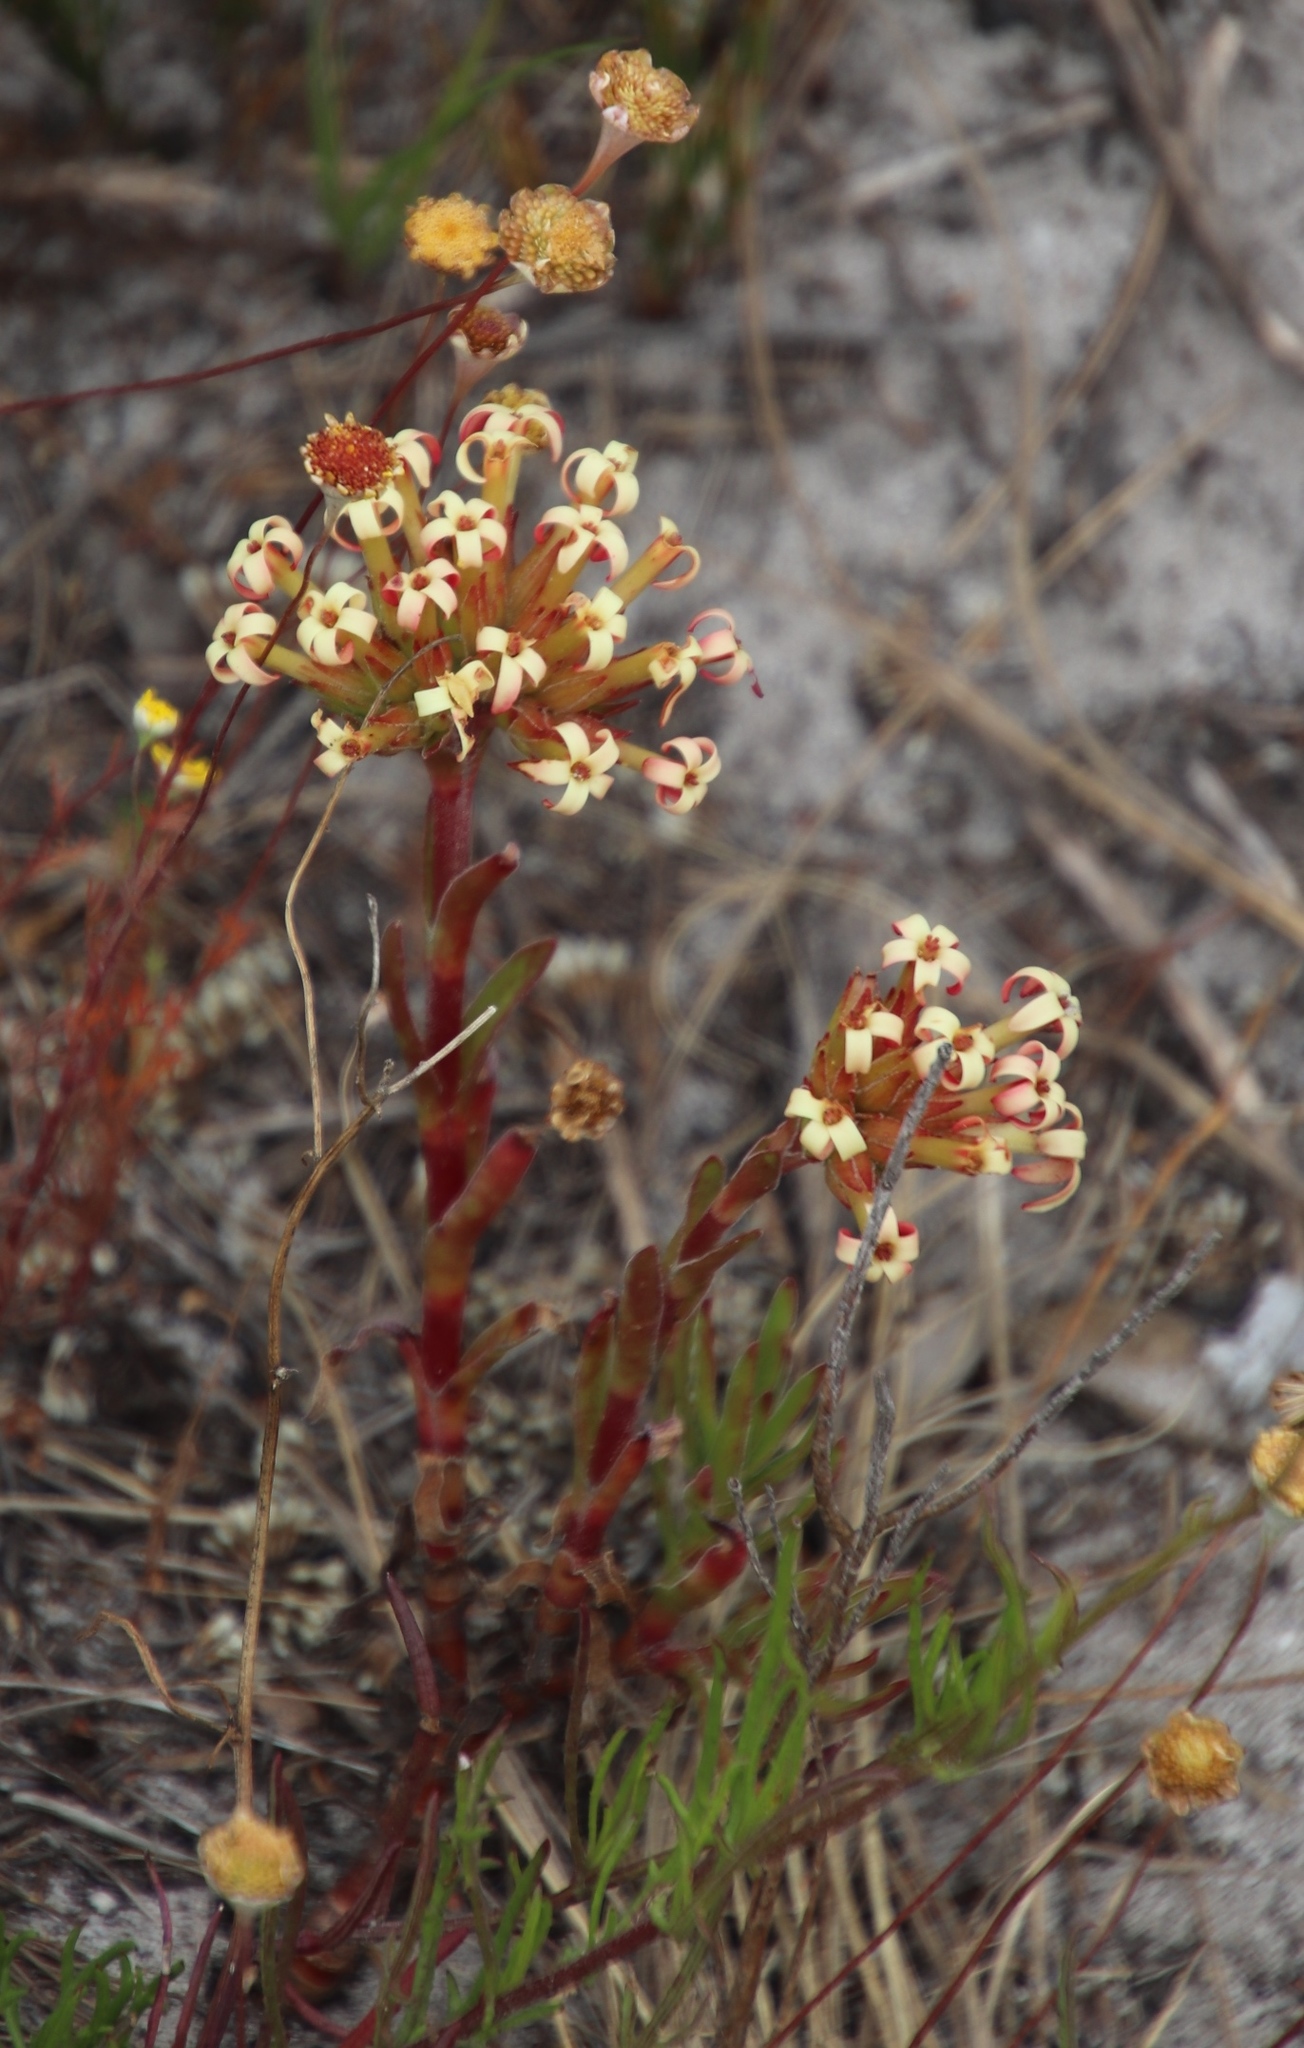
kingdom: Plantae
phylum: Tracheophyta
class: Magnoliopsida
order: Saxifragales
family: Crassulaceae
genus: Crassula
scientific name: Crassula fascicularis
